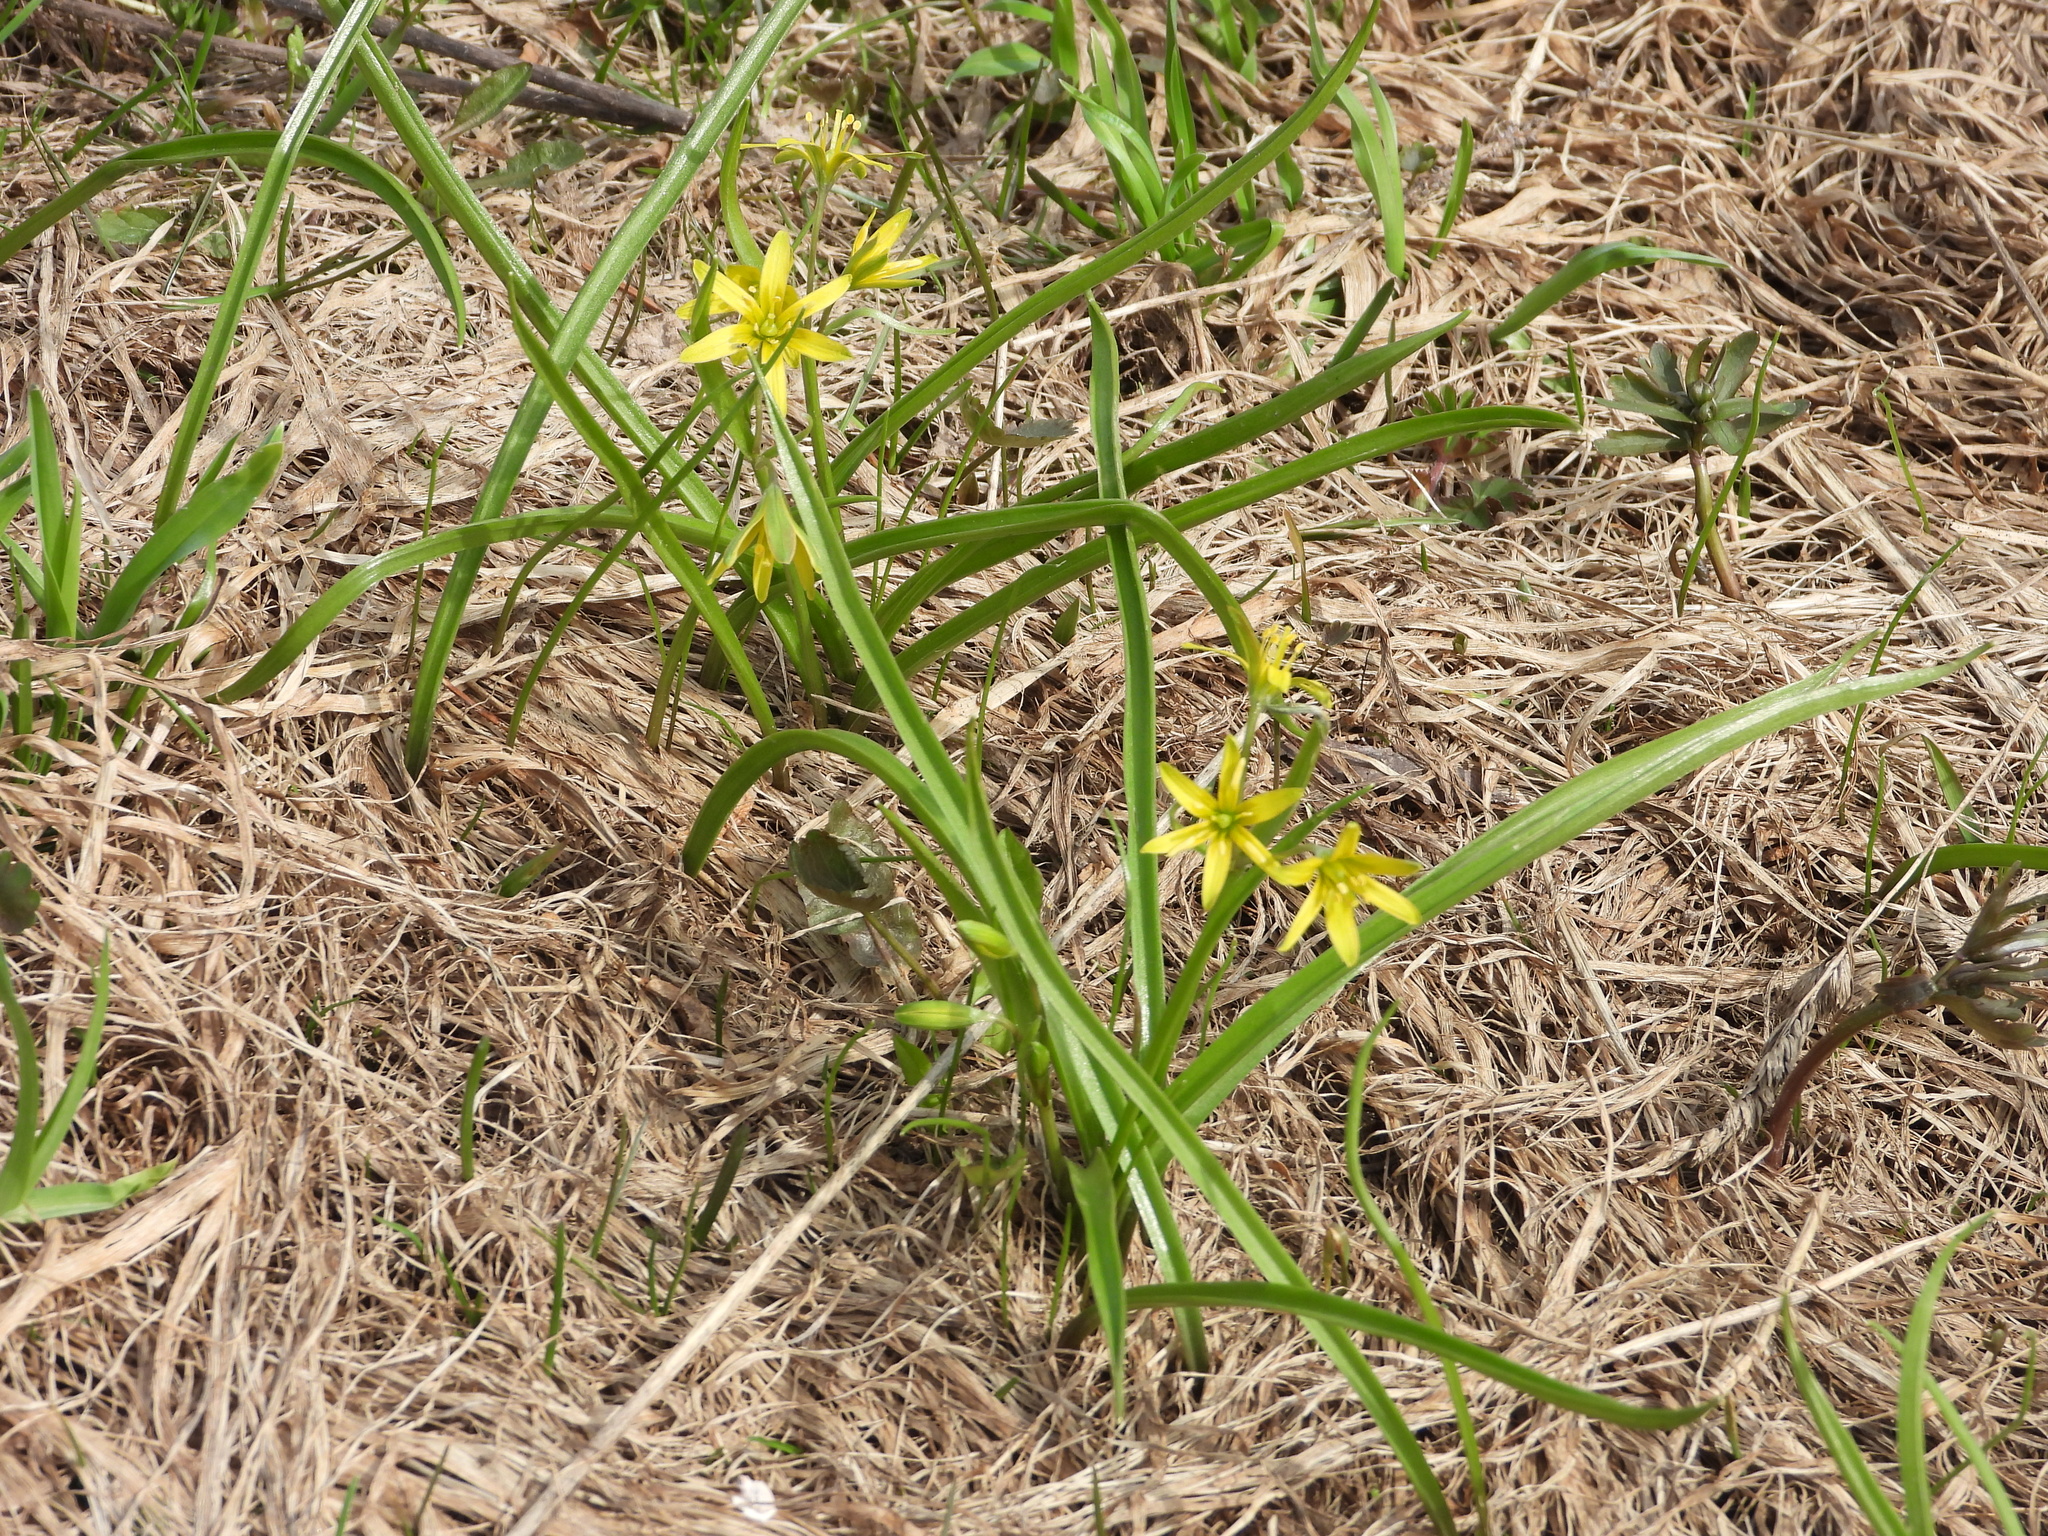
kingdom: Plantae
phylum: Tracheophyta
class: Liliopsida
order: Liliales
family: Liliaceae
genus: Gagea
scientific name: Gagea lutea
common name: Yellow star-of-bethlehem
